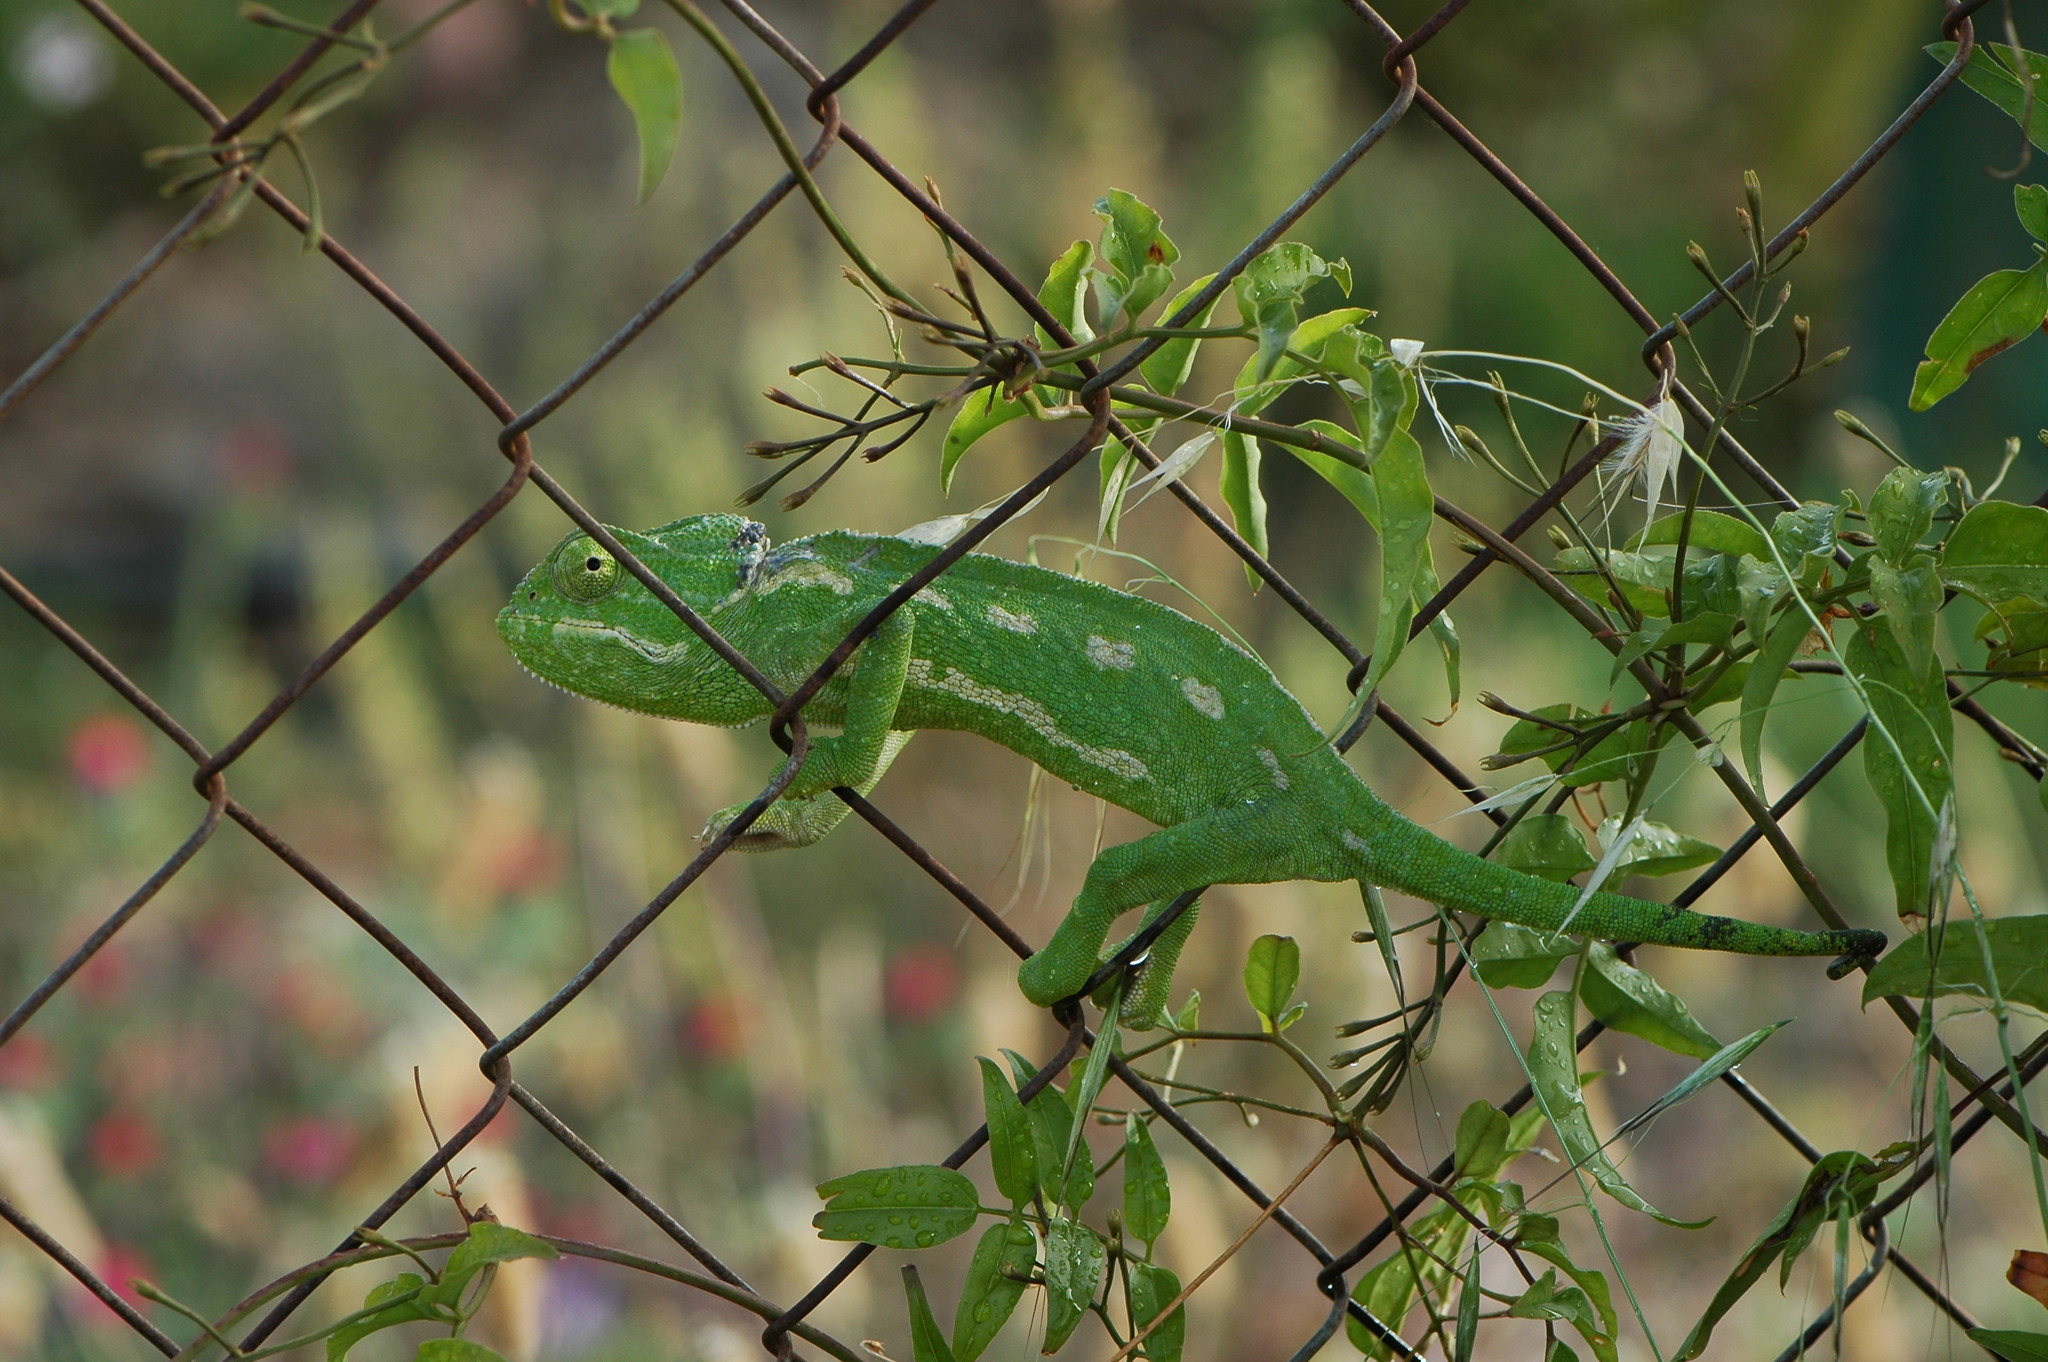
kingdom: Animalia
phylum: Chordata
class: Squamata
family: Chamaeleonidae
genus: Chamaeleo
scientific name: Chamaeleo chamaeleon
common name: Mediterranean chameleon
